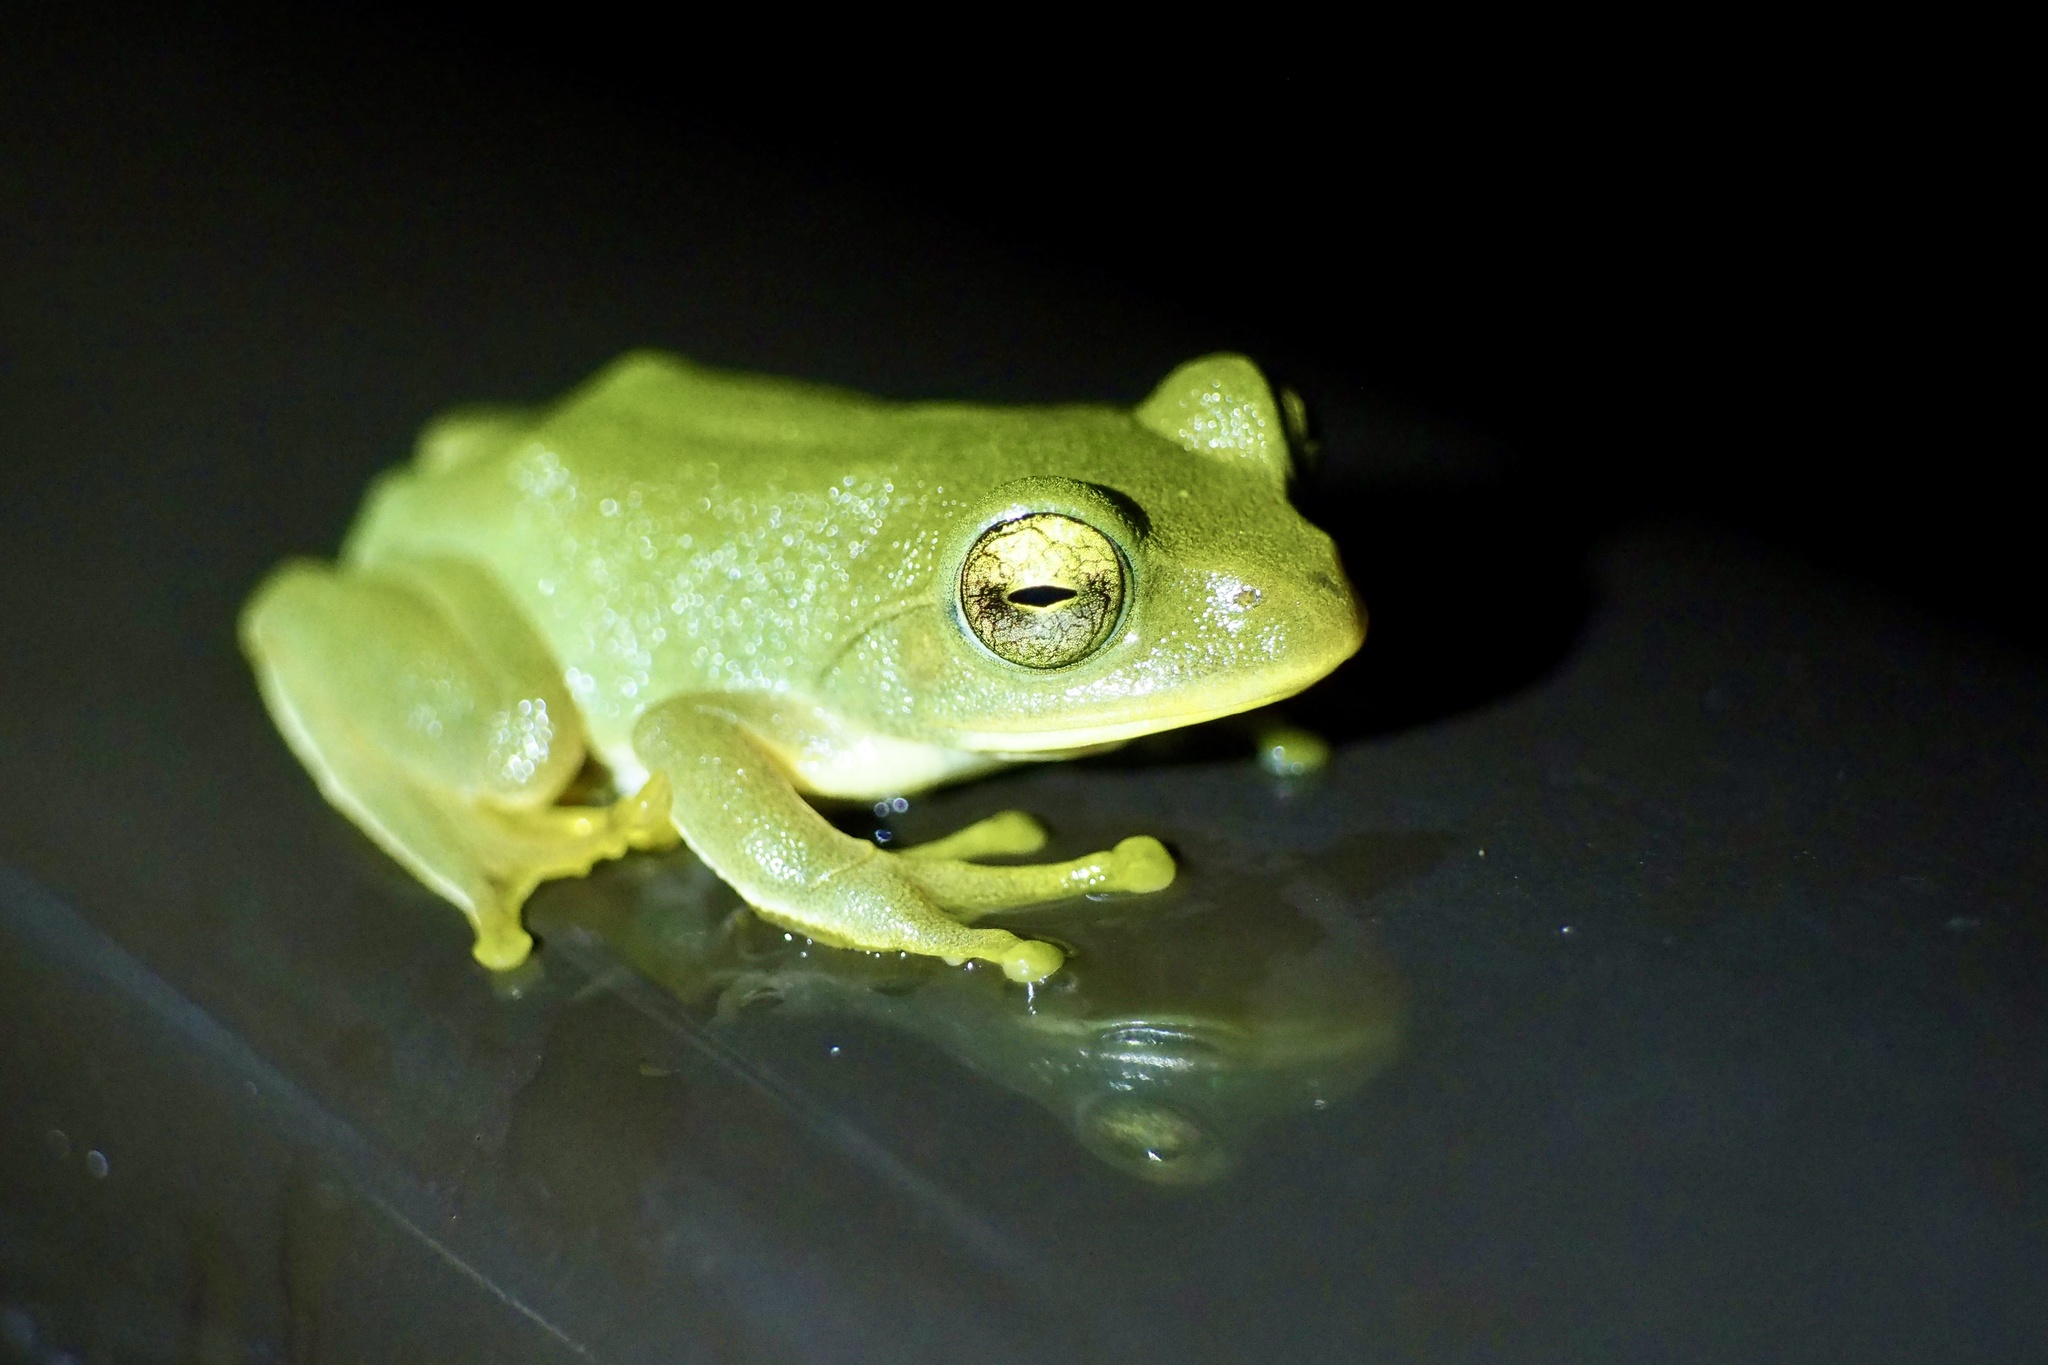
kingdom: Animalia
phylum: Chordata
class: Amphibia
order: Anura
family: Rhacophoridae
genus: Zhangixalus
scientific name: Zhangixalus schlegelii
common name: Japanese gliding frog
